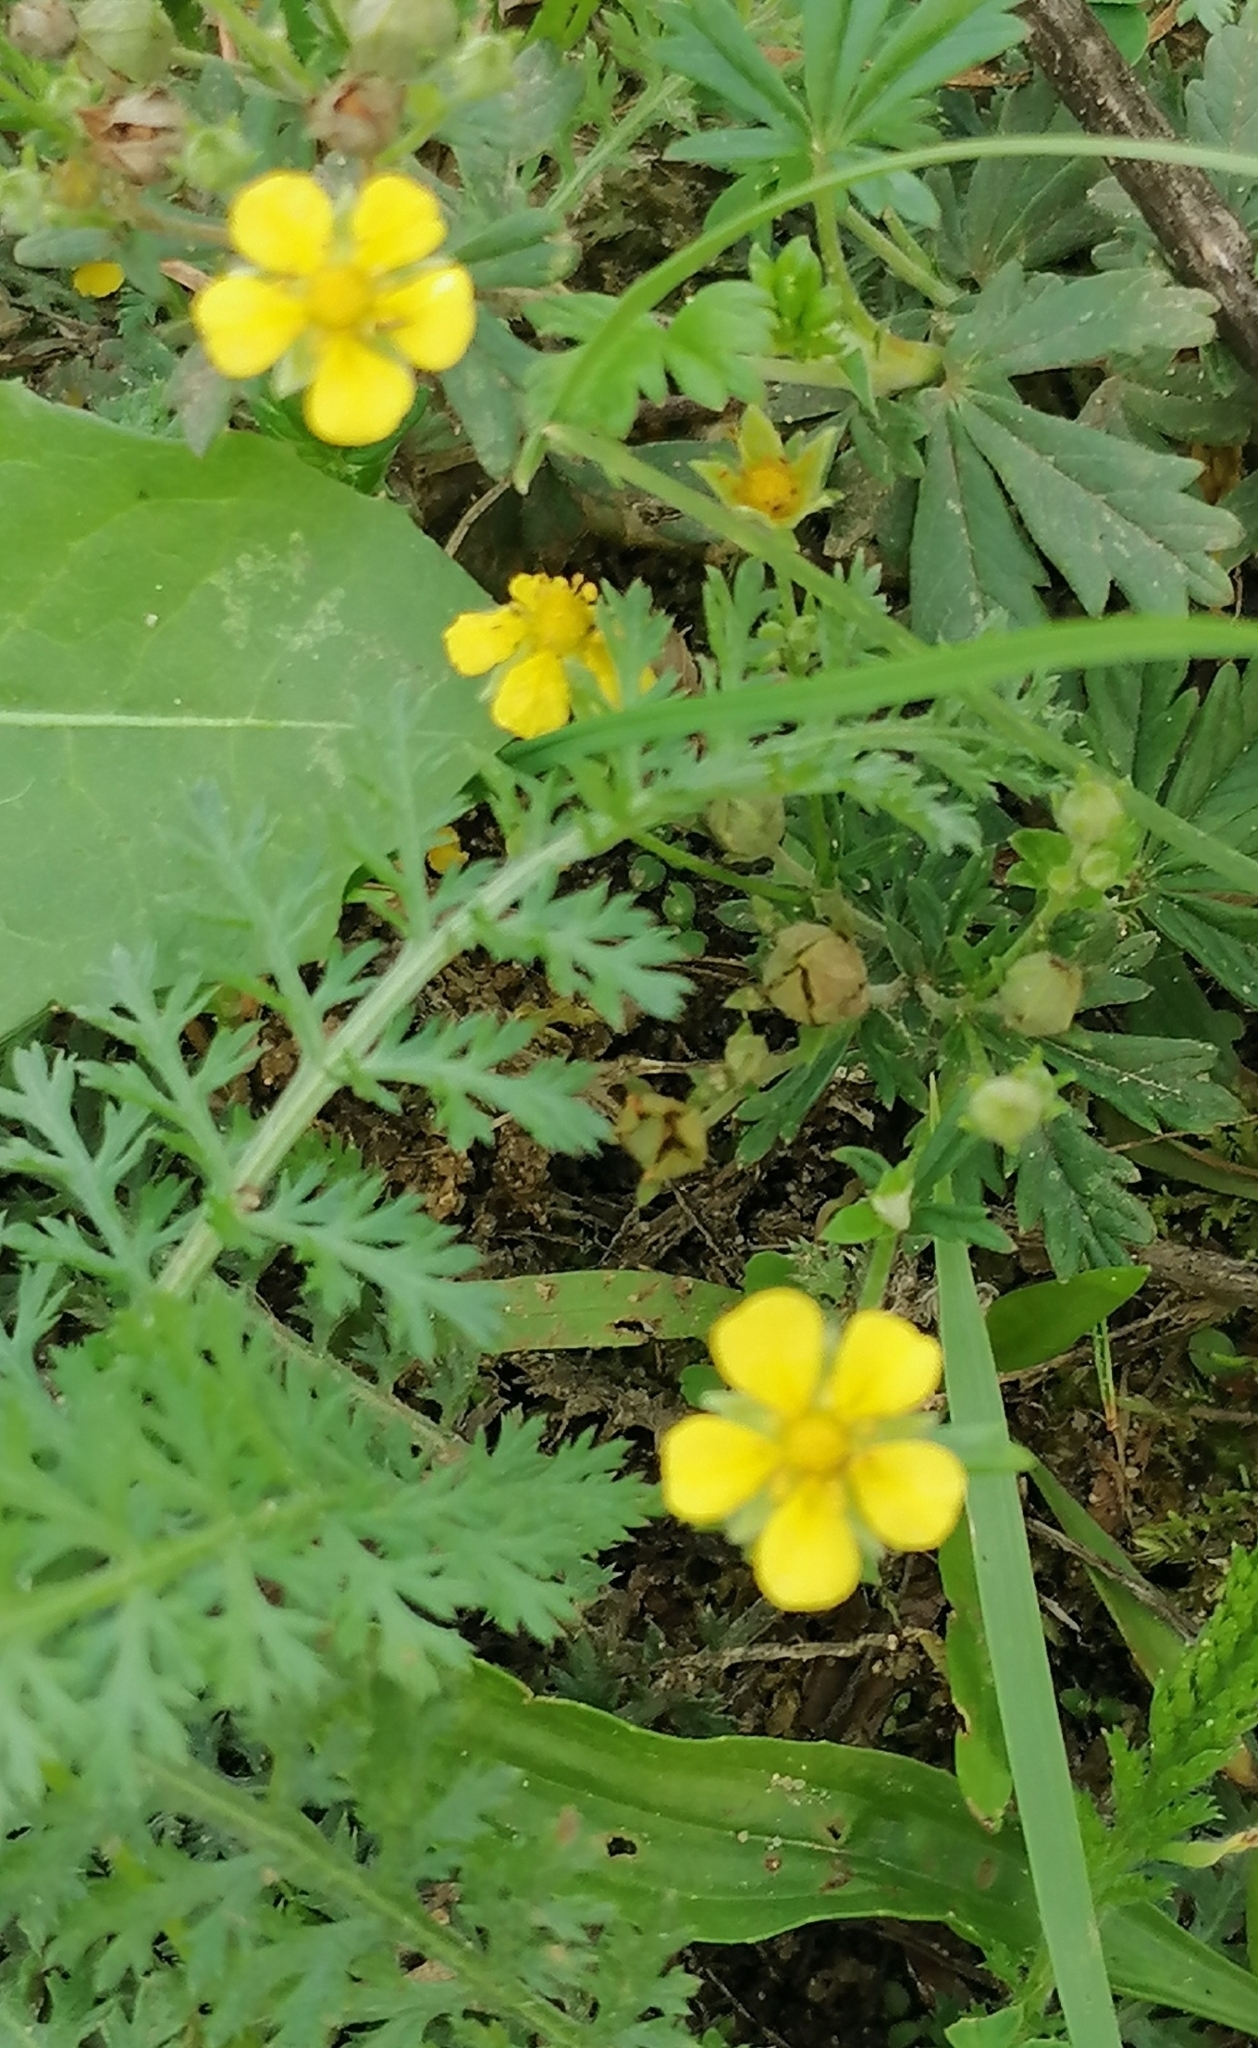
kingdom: Plantae
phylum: Tracheophyta
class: Magnoliopsida
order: Rosales
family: Rosaceae
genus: Potentilla
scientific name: Potentilla argentea
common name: Hoary cinquefoil
